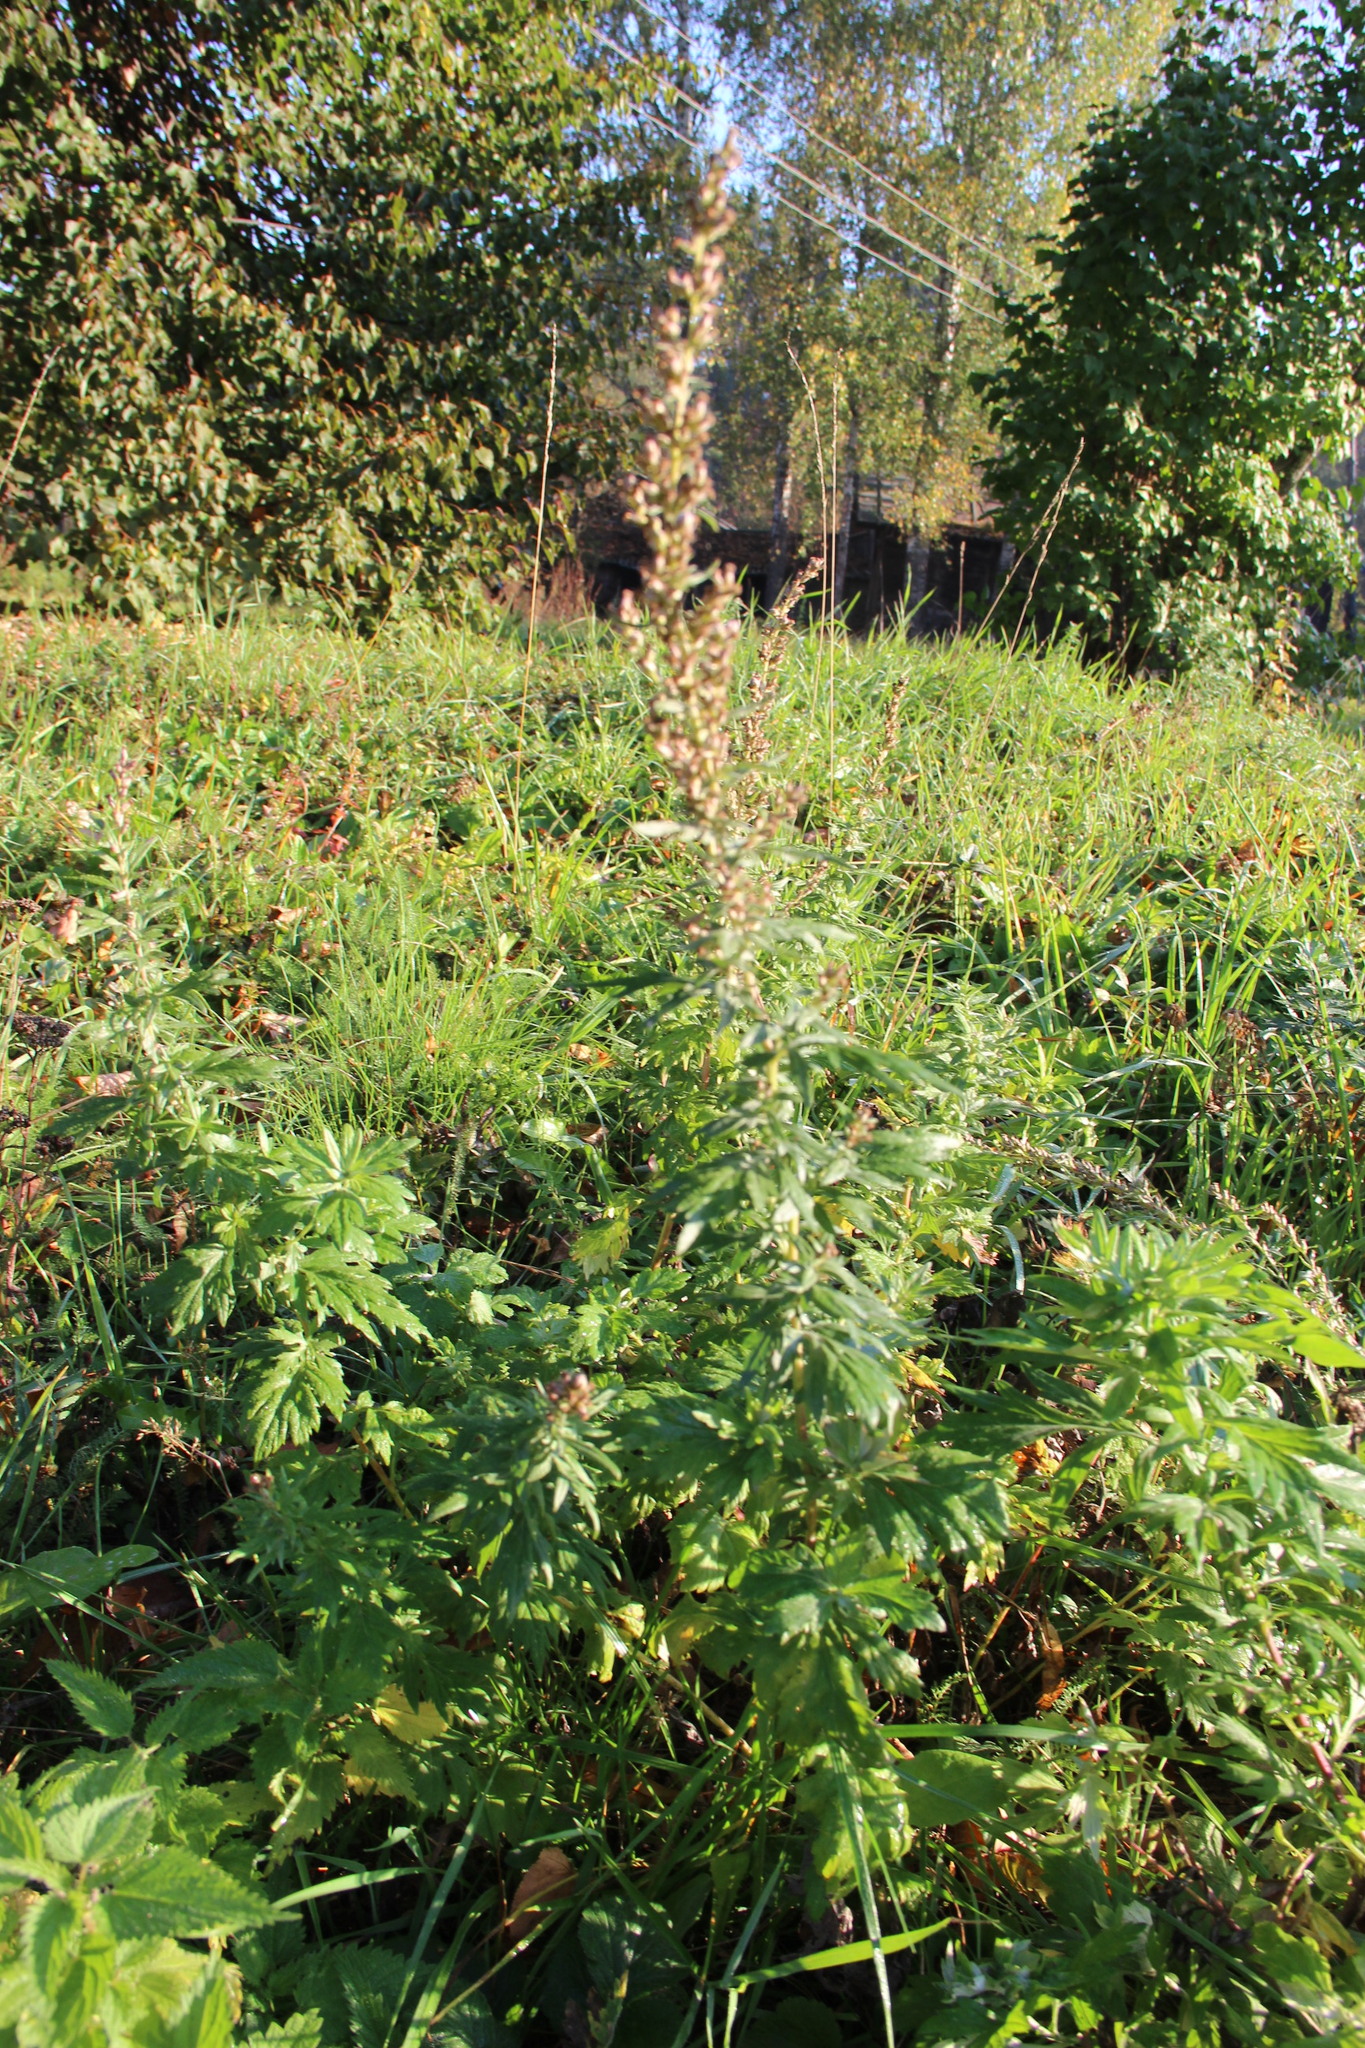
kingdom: Plantae
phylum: Tracheophyta
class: Magnoliopsida
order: Asterales
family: Asteraceae
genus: Artemisia
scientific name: Artemisia vulgaris
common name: Mugwort
